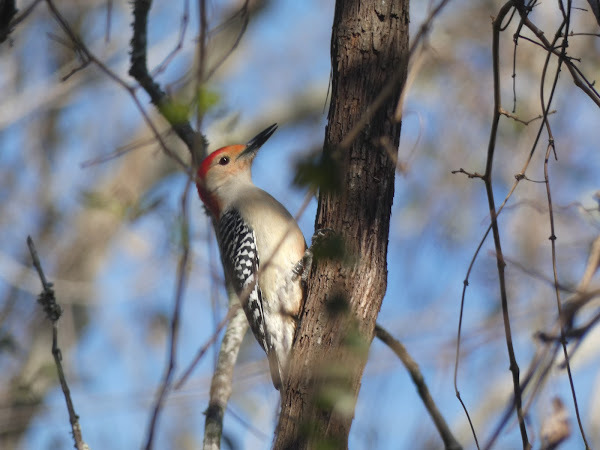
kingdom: Animalia
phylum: Chordata
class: Aves
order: Piciformes
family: Picidae
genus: Melanerpes
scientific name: Melanerpes carolinus
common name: Red-bellied woodpecker
